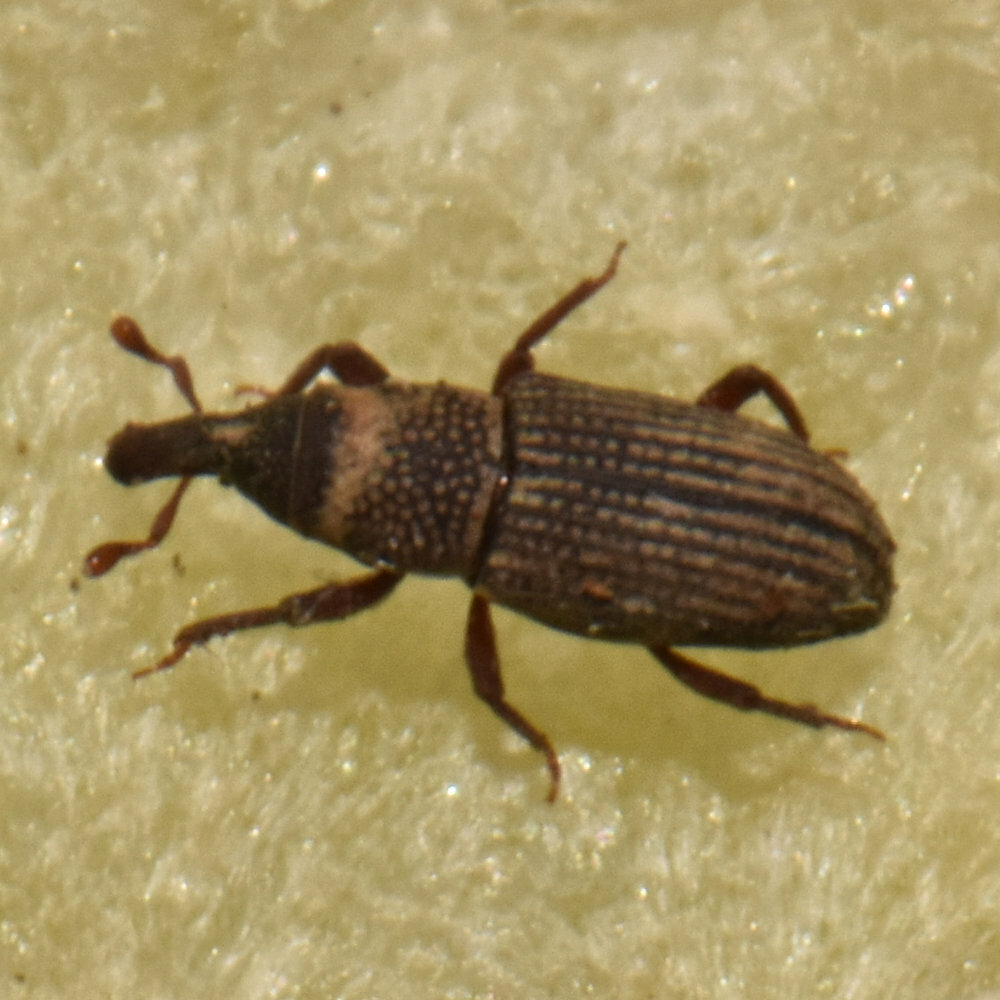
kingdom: Animalia
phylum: Arthropoda
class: Insecta
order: Coleoptera
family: Dryophthoridae
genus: Dryophthorus
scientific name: Dryophthorus americanus
